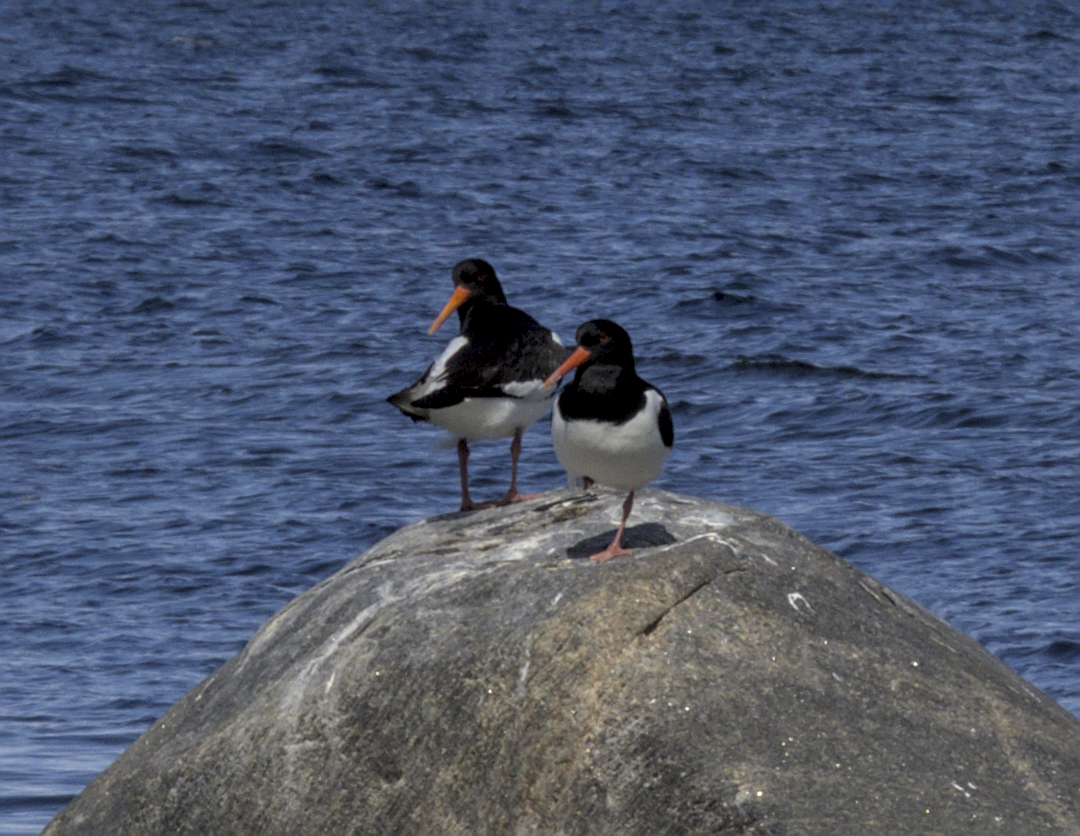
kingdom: Animalia
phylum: Chordata
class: Aves
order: Charadriiformes
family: Haematopodidae
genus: Haematopus
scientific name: Haematopus ostralegus
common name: Eurasian oystercatcher
